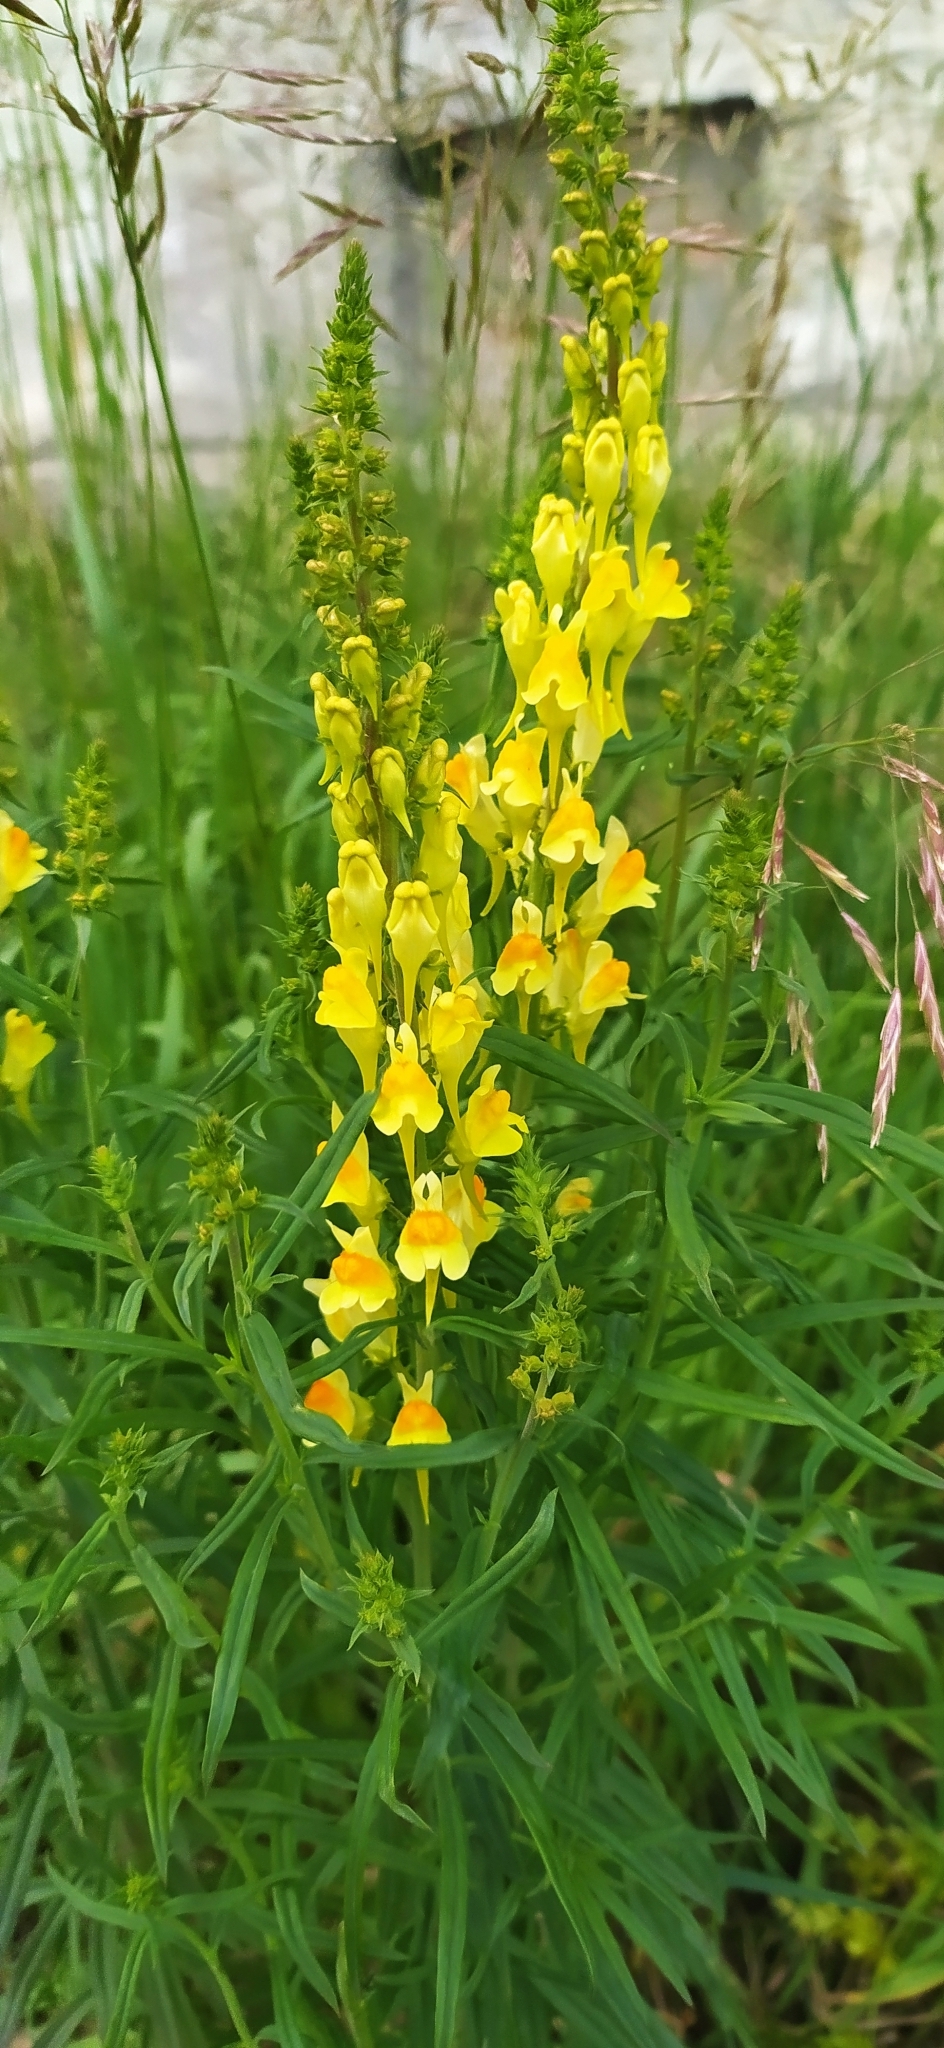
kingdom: Plantae
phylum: Tracheophyta
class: Magnoliopsida
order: Lamiales
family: Plantaginaceae
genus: Linaria
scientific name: Linaria vulgaris
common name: Butter and eggs
